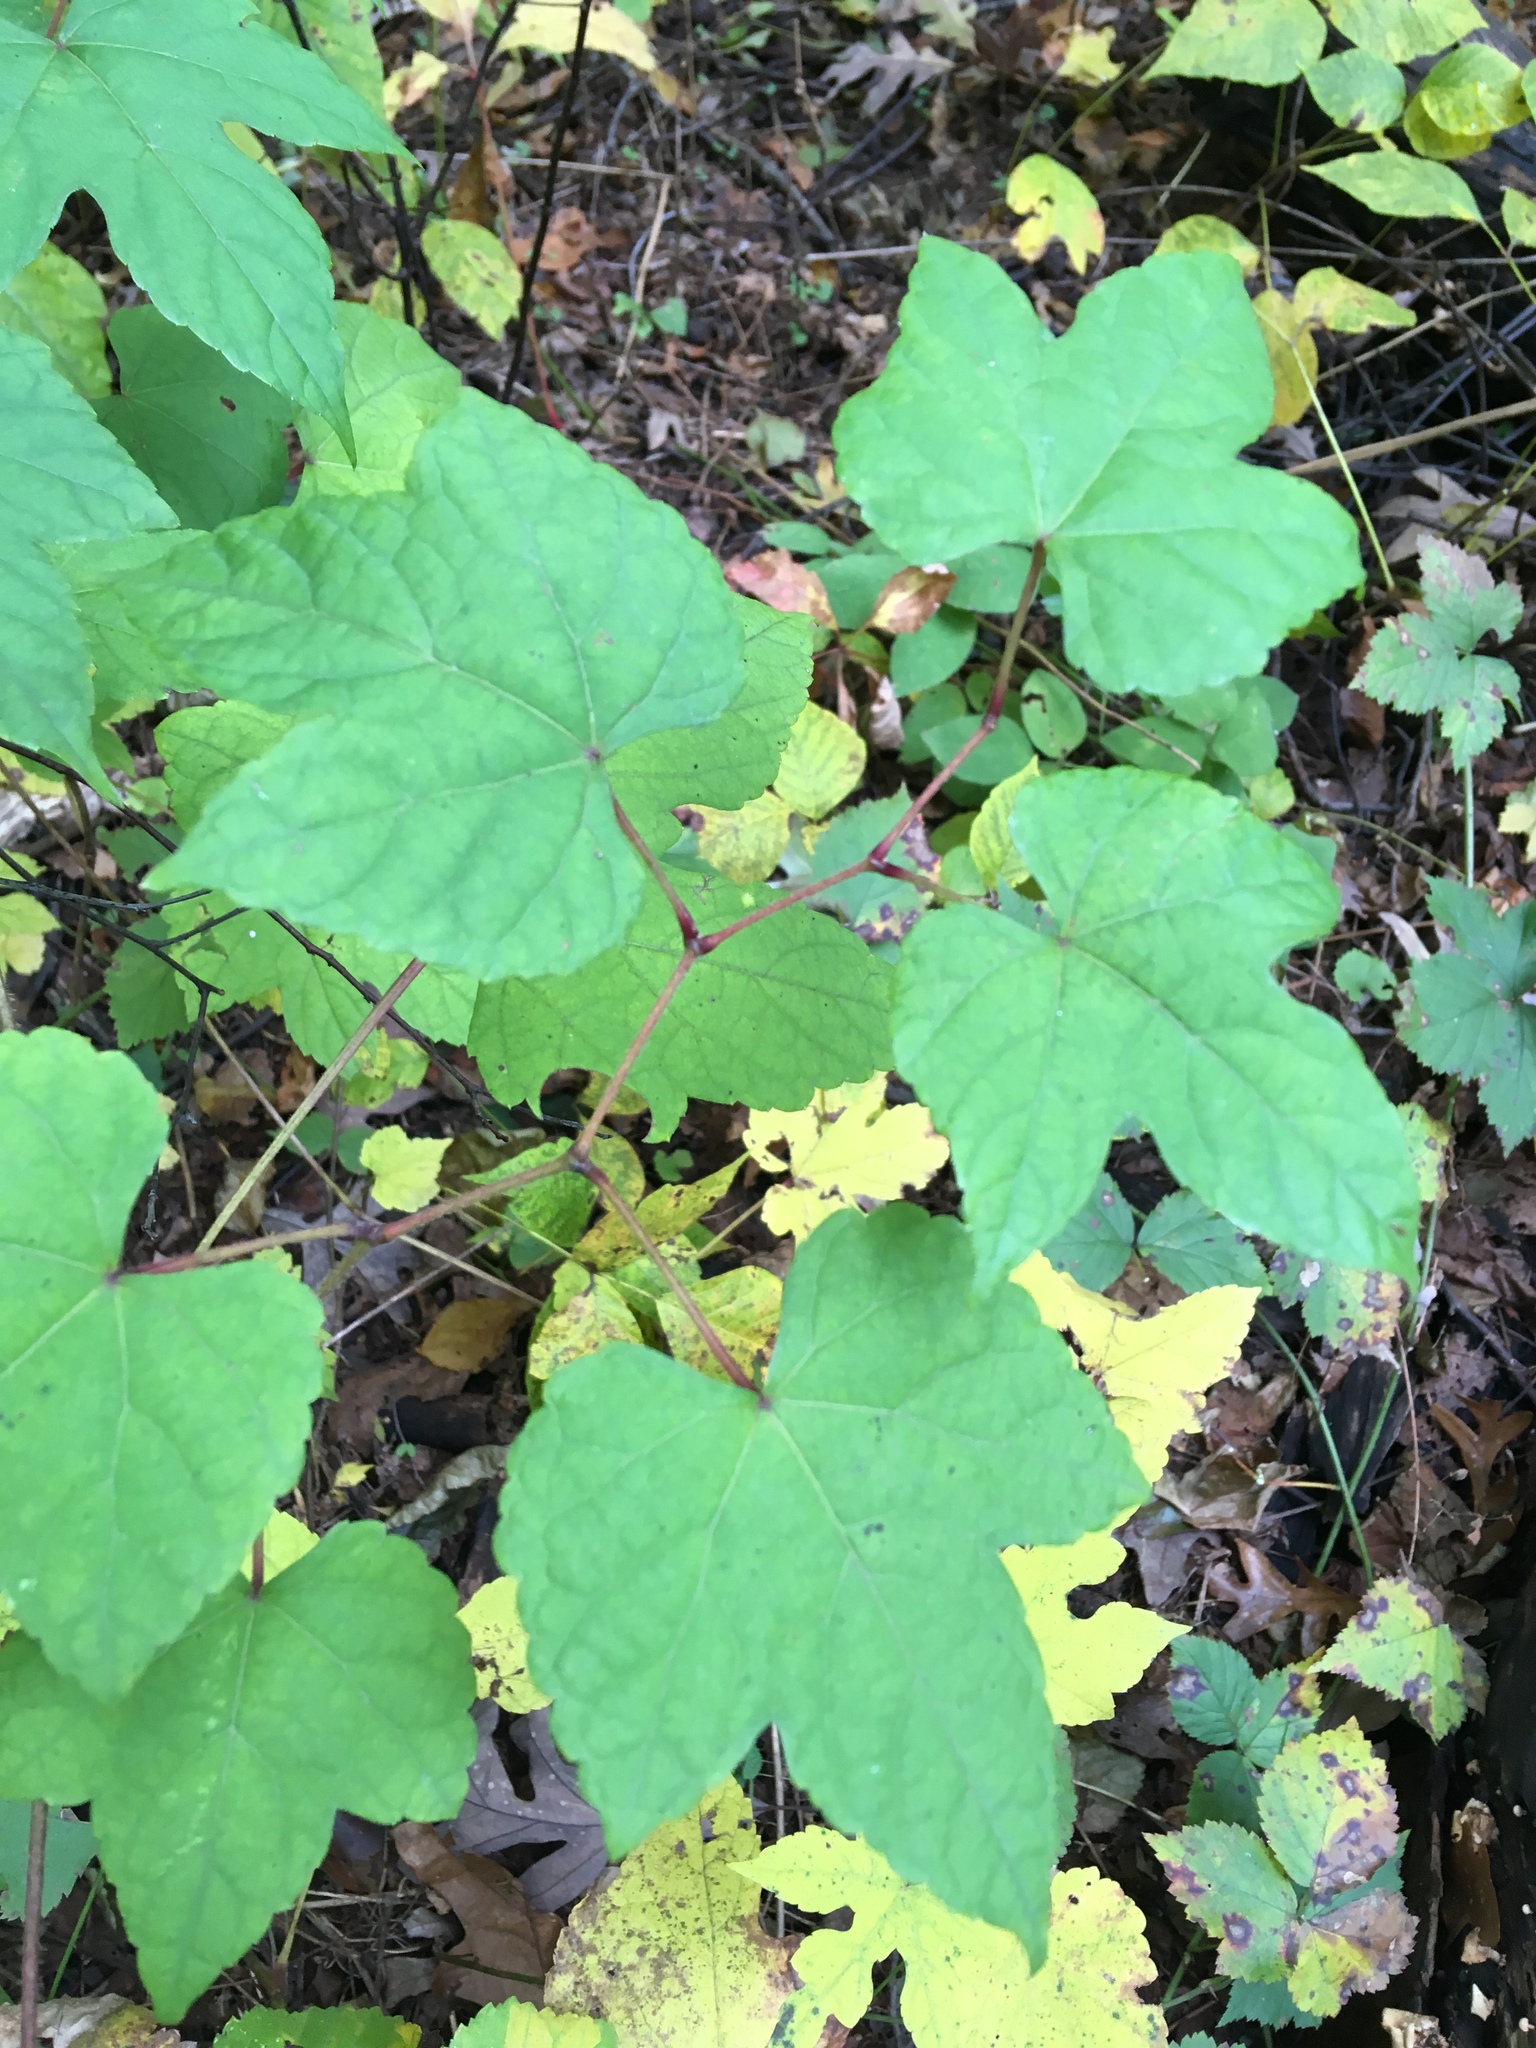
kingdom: Plantae
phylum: Tracheophyta
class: Magnoliopsida
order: Vitales
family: Vitaceae
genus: Ampelopsis
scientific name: Ampelopsis glandulosa
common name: Amur peppervine
